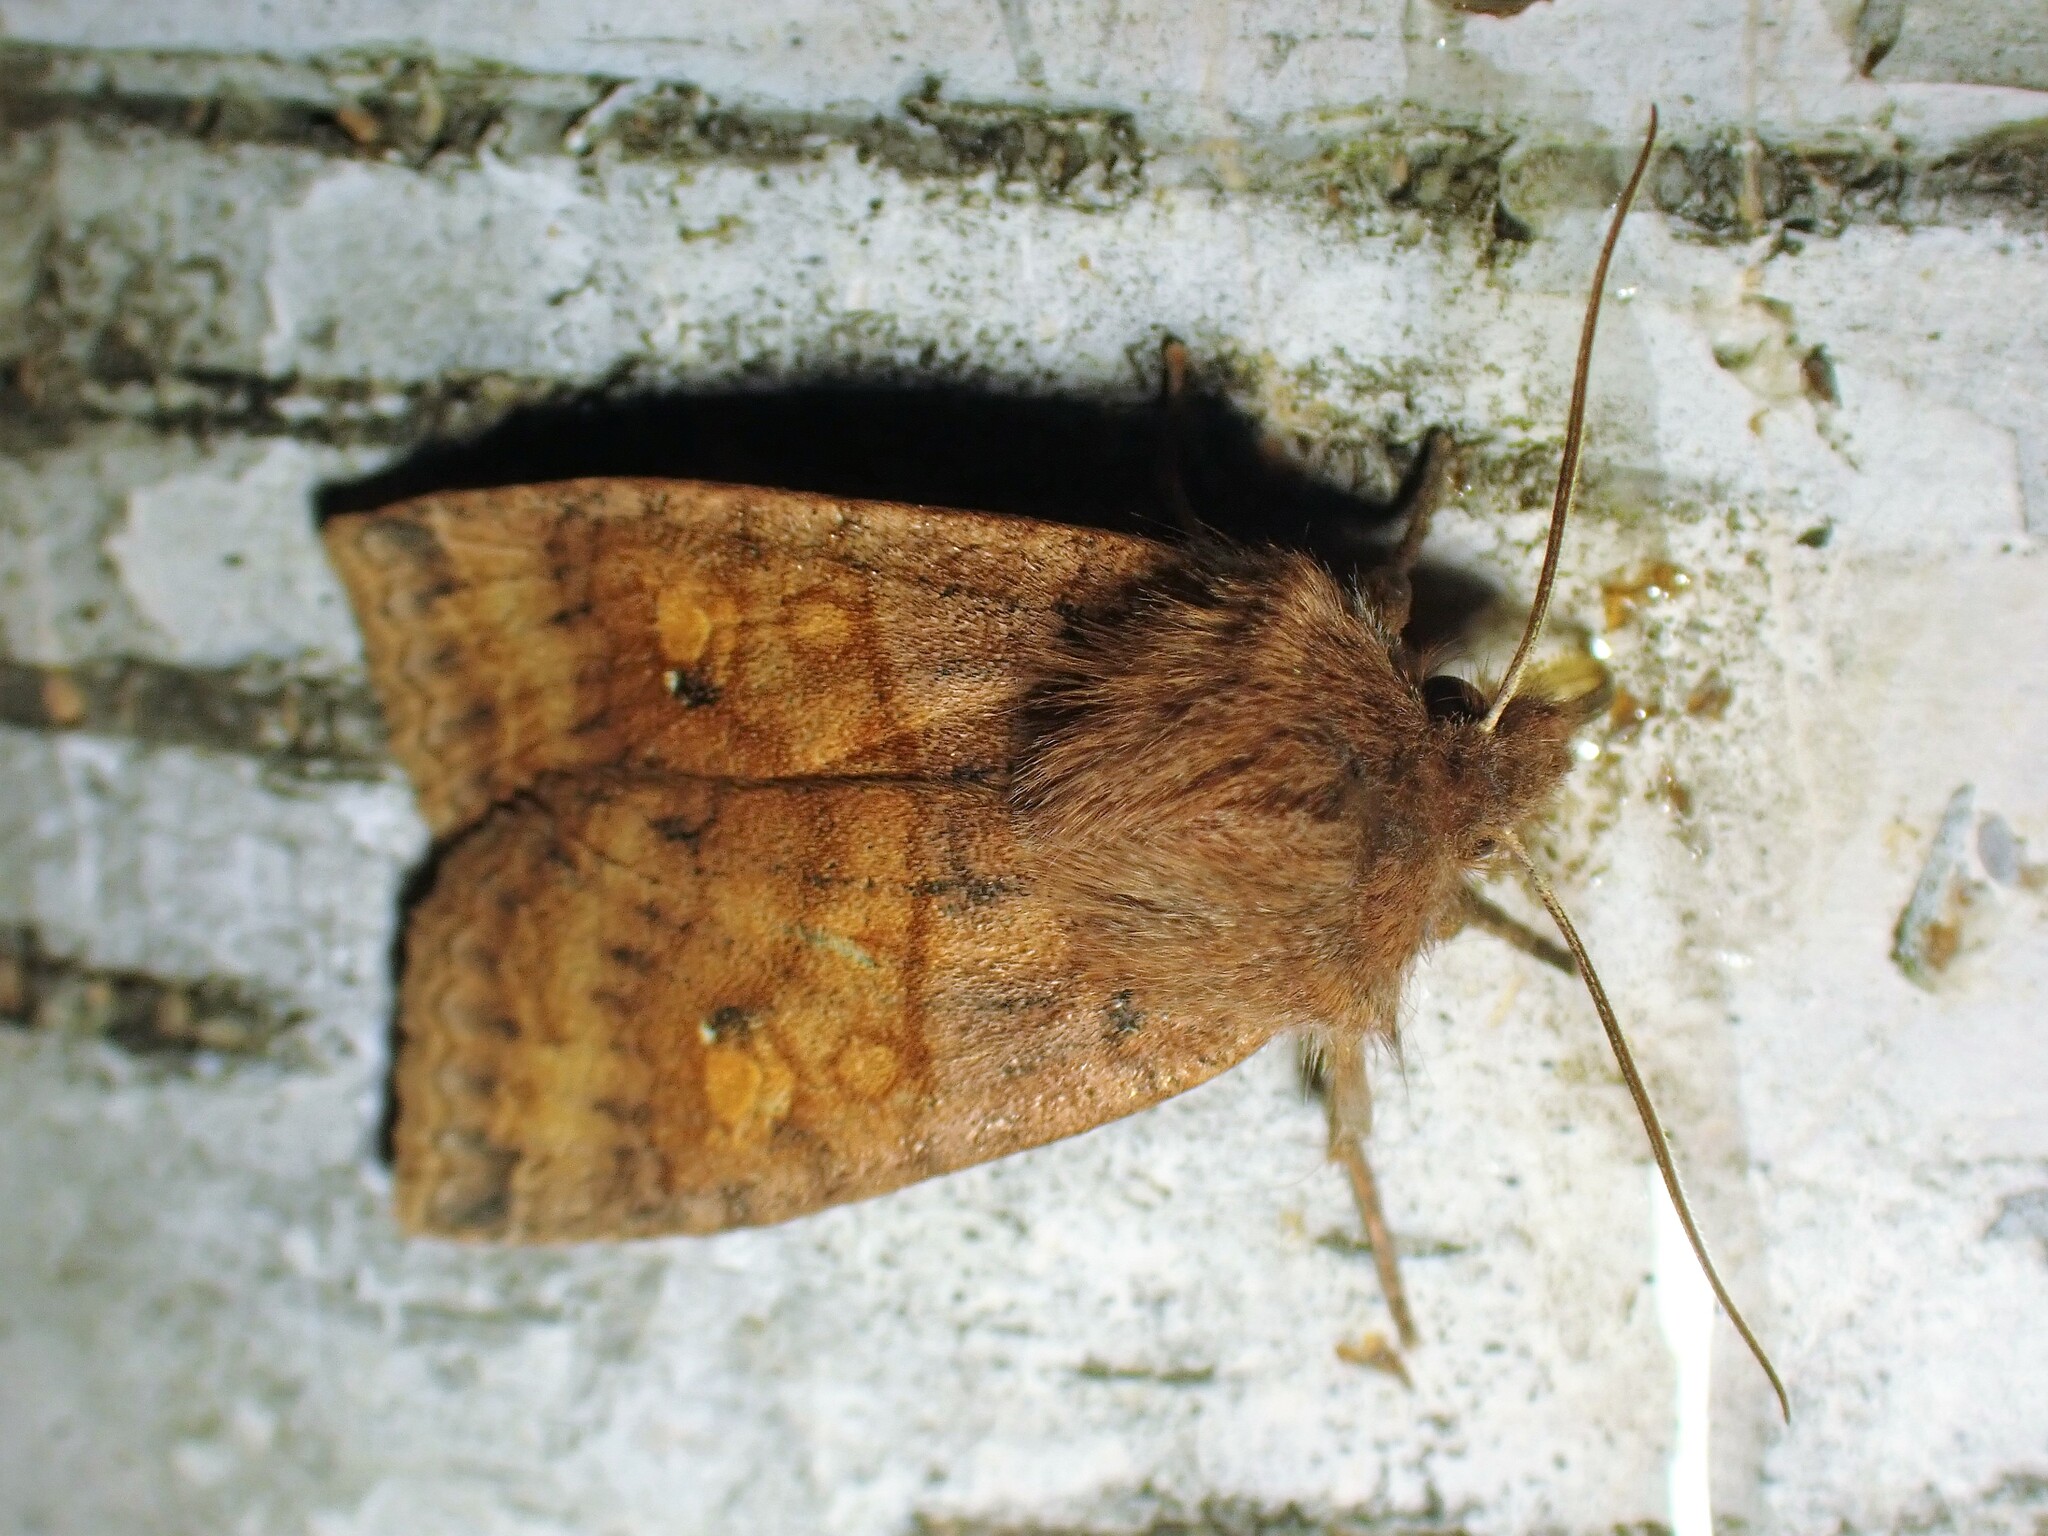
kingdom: Animalia
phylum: Arthropoda
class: Insecta
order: Lepidoptera
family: Noctuidae
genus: Eupsilia
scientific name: Eupsilia tristigmata
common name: Three-spotted sallow
